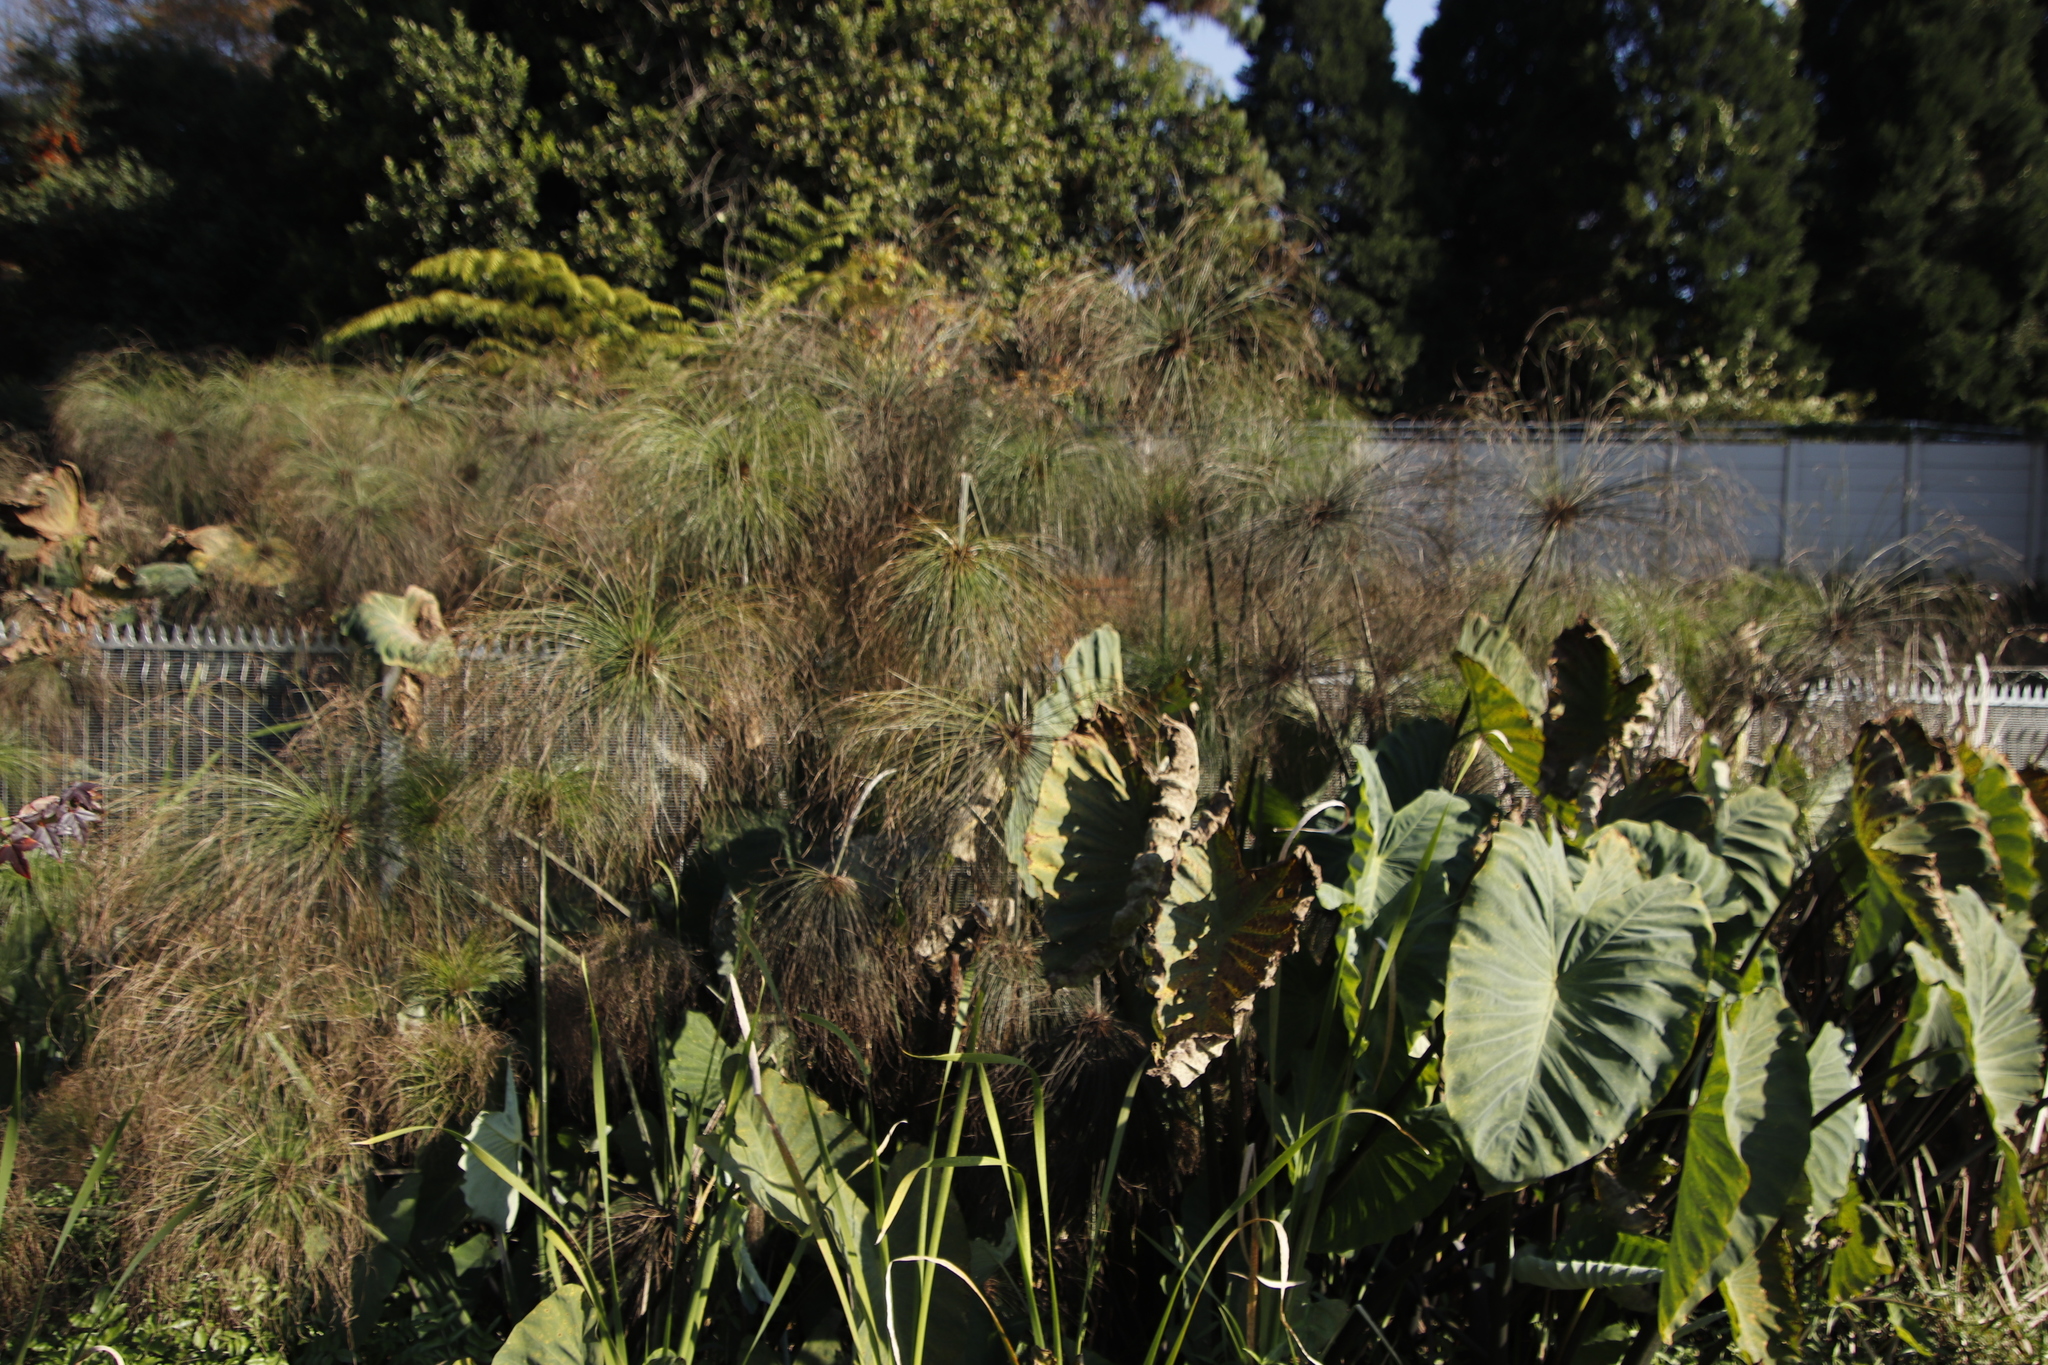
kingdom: Plantae
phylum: Tracheophyta
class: Liliopsida
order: Alismatales
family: Araceae
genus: Colocasia
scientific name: Colocasia esculenta
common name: Taro
